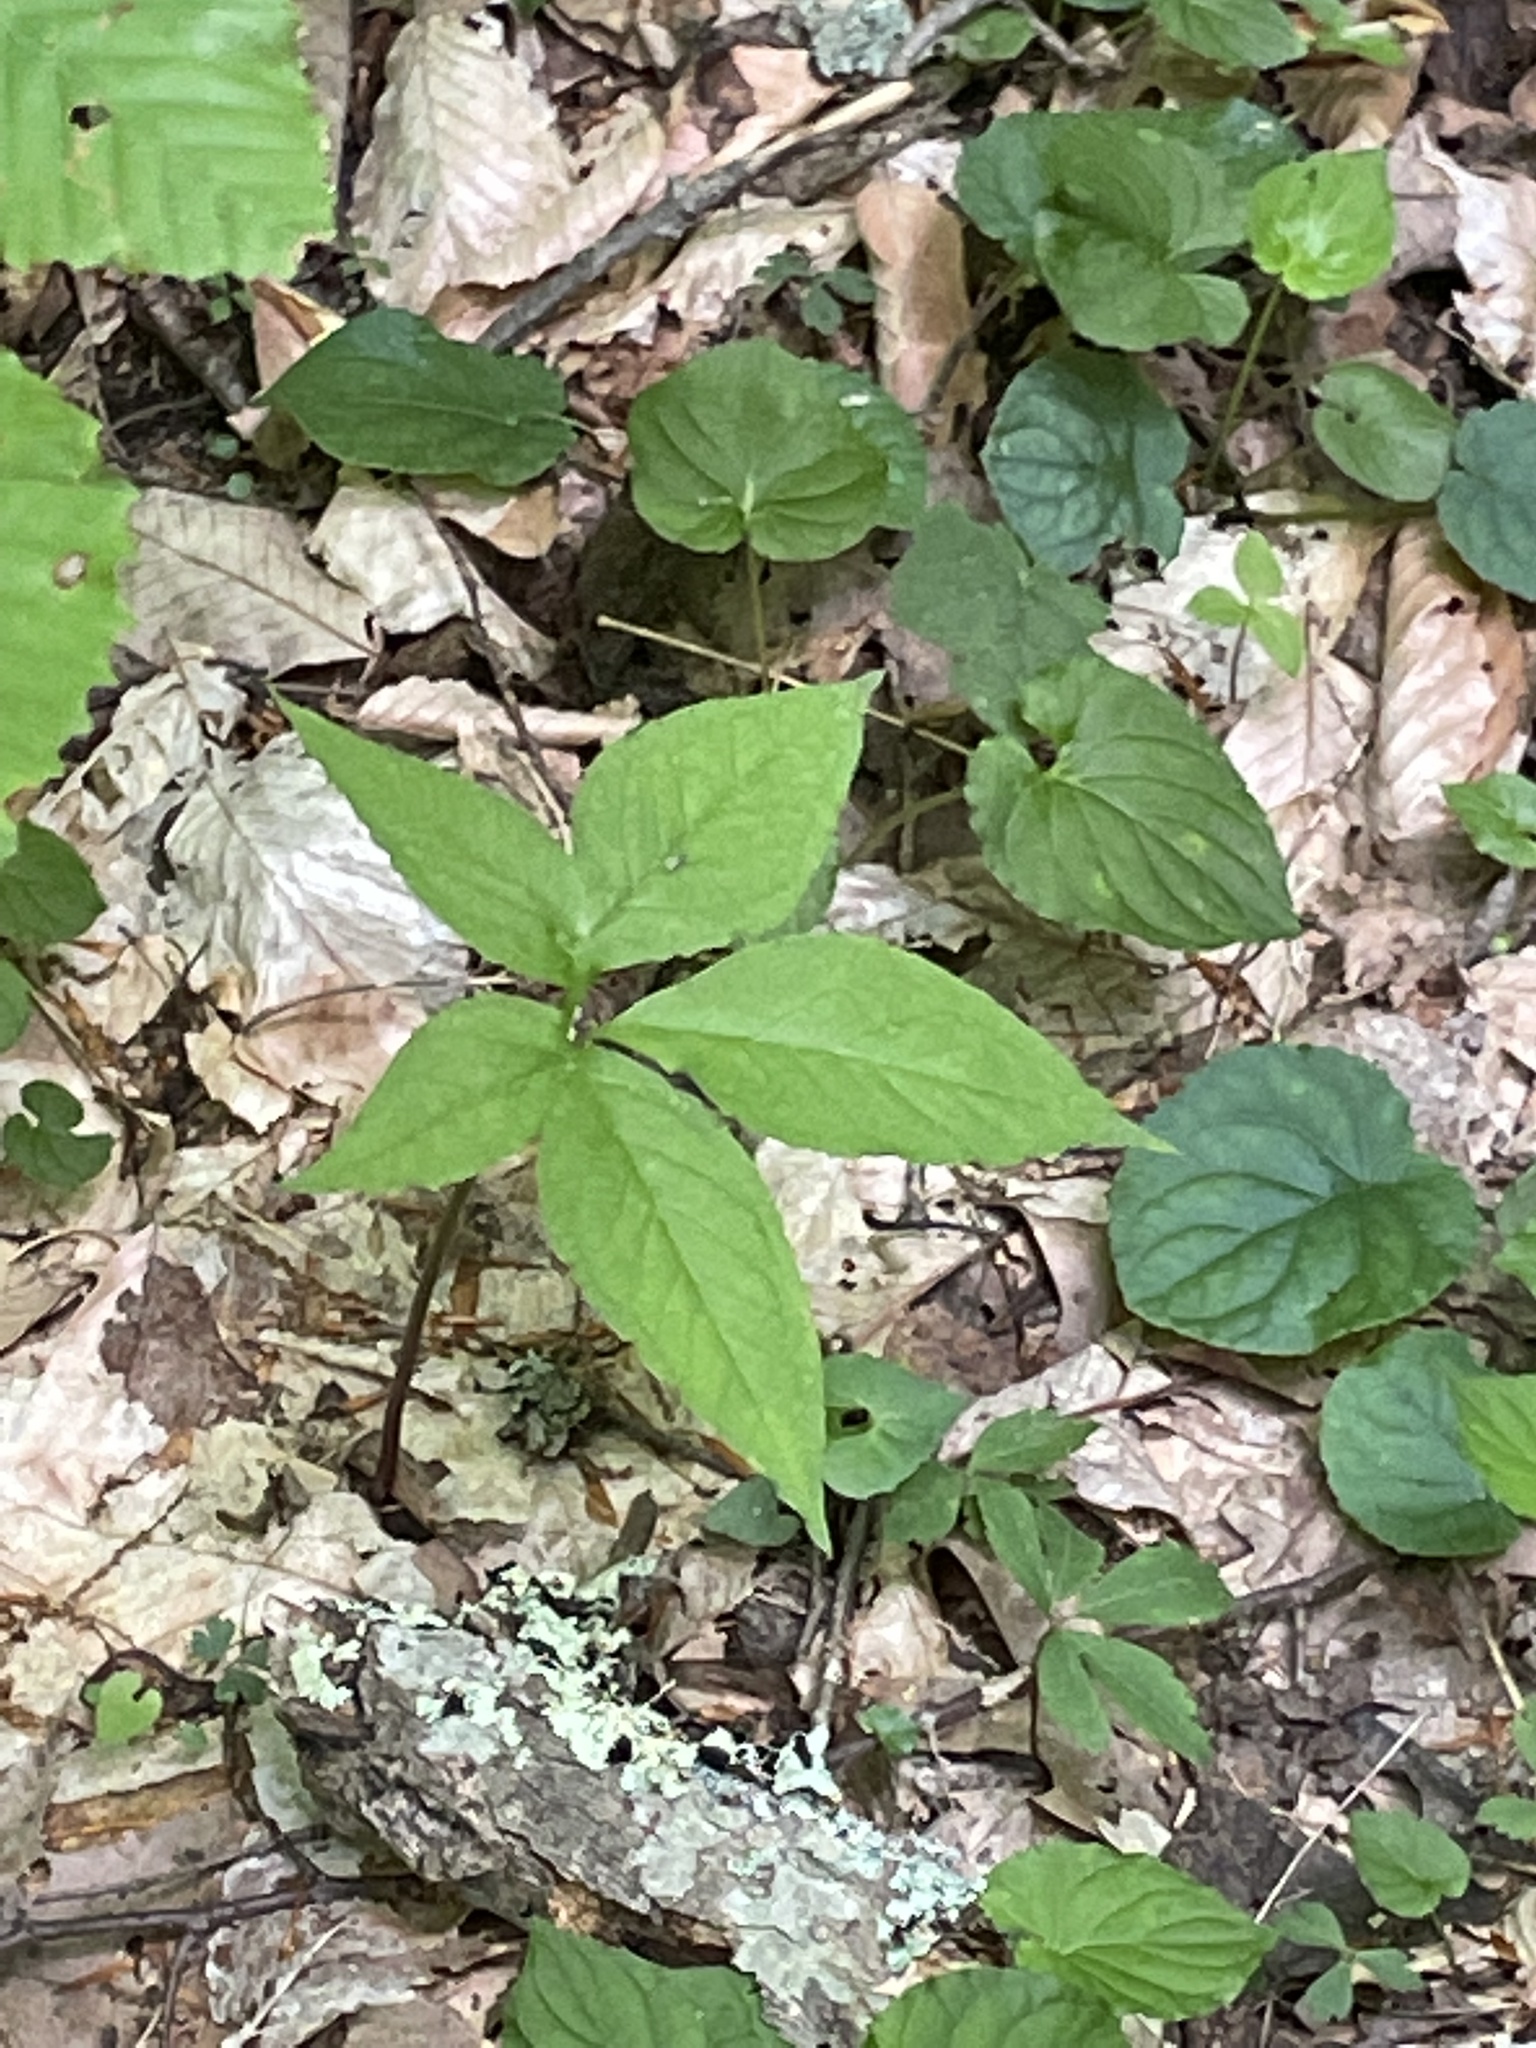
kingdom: Plantae
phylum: Tracheophyta
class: Liliopsida
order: Alismatales
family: Araceae
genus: Arisaema
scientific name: Arisaema quinatum
